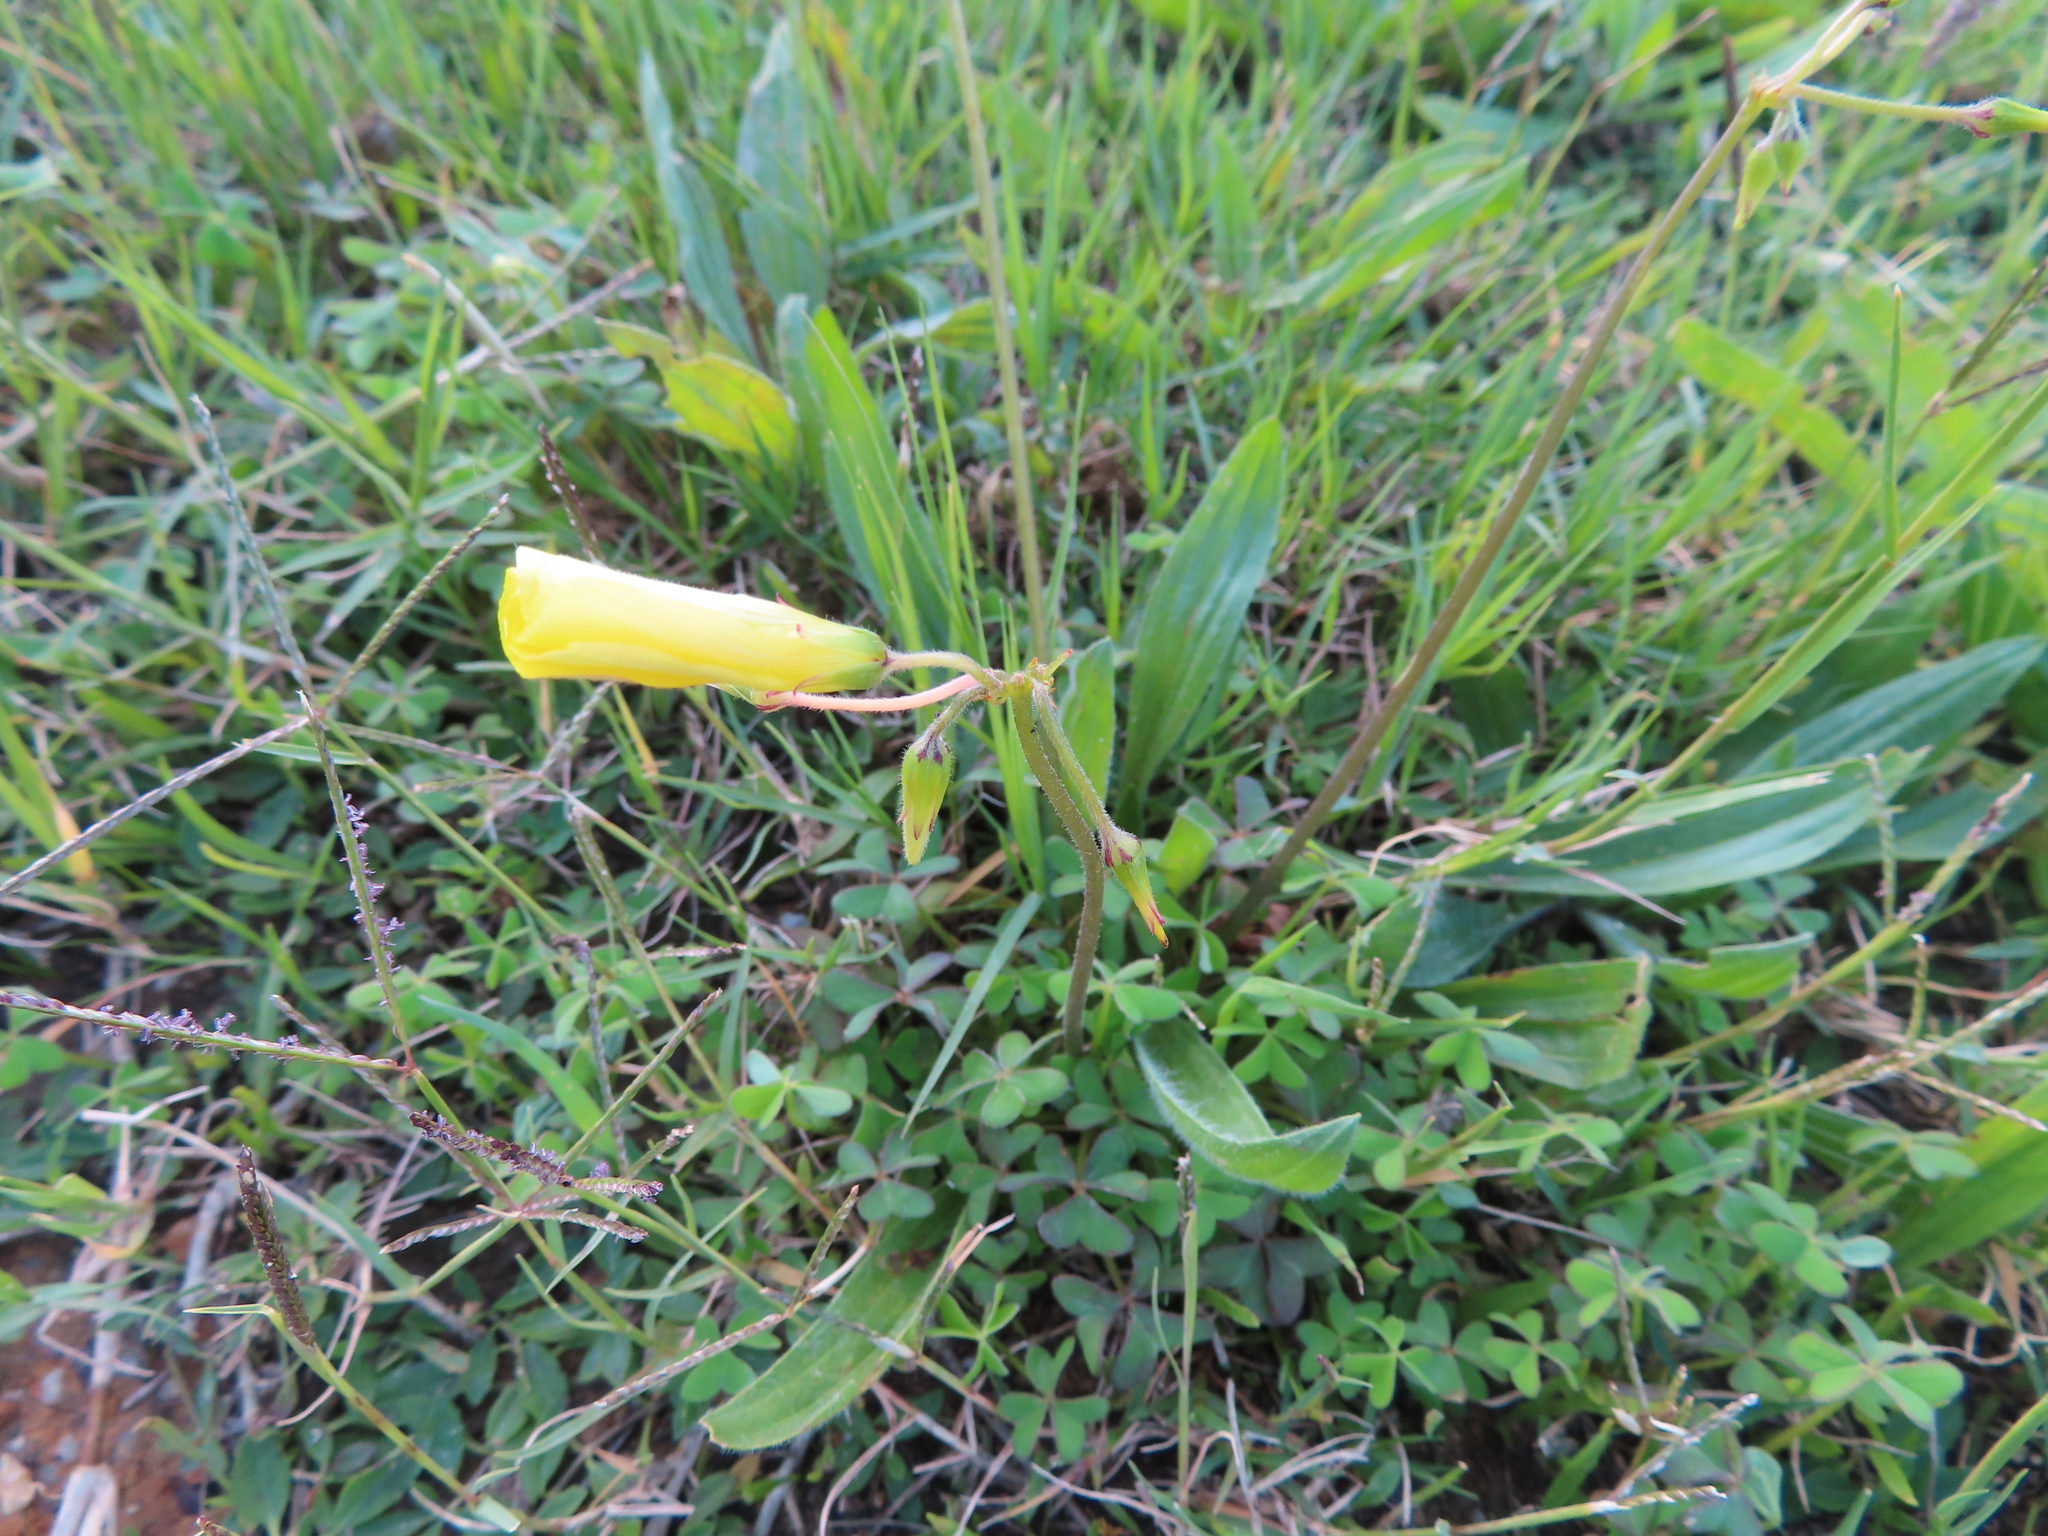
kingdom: Plantae
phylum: Tracheophyta
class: Magnoliopsida
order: Oxalidales
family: Oxalidaceae
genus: Oxalis
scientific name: Oxalis pes-caprae
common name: Bermuda-buttercup
